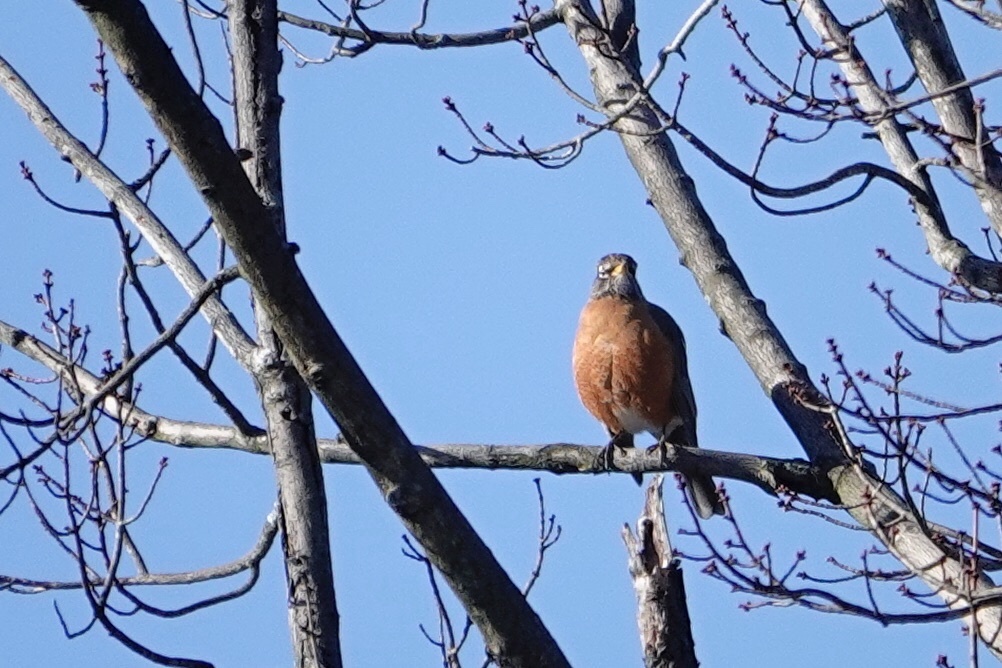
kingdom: Animalia
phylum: Chordata
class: Aves
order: Passeriformes
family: Turdidae
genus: Turdus
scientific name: Turdus migratorius
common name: American robin
